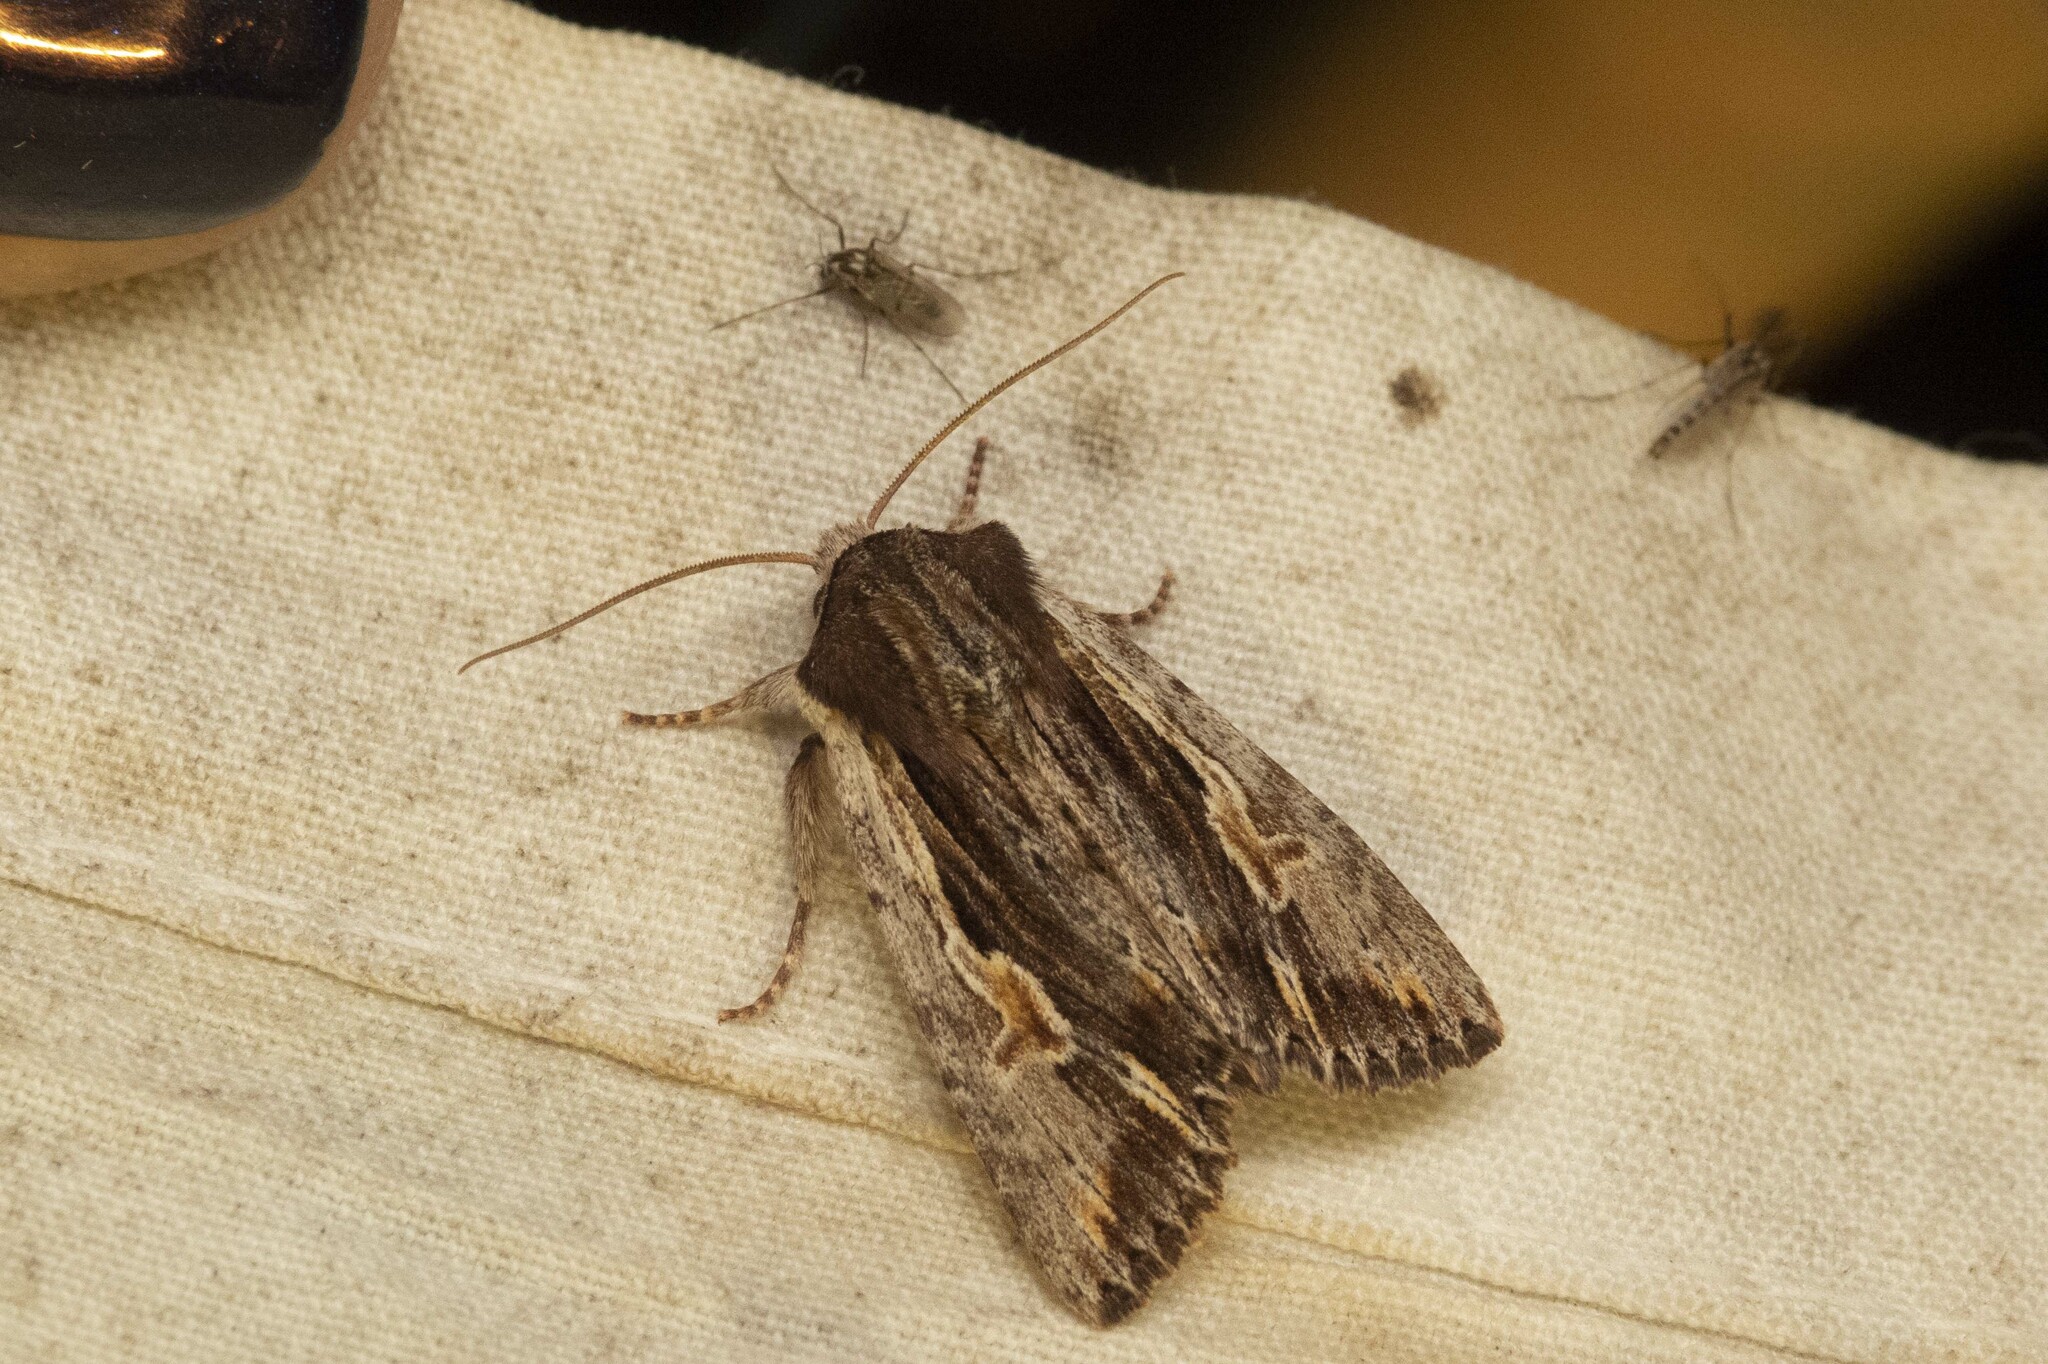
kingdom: Animalia
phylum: Arthropoda
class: Insecta
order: Lepidoptera
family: Noctuidae
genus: Achatia
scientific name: Achatia evicta
